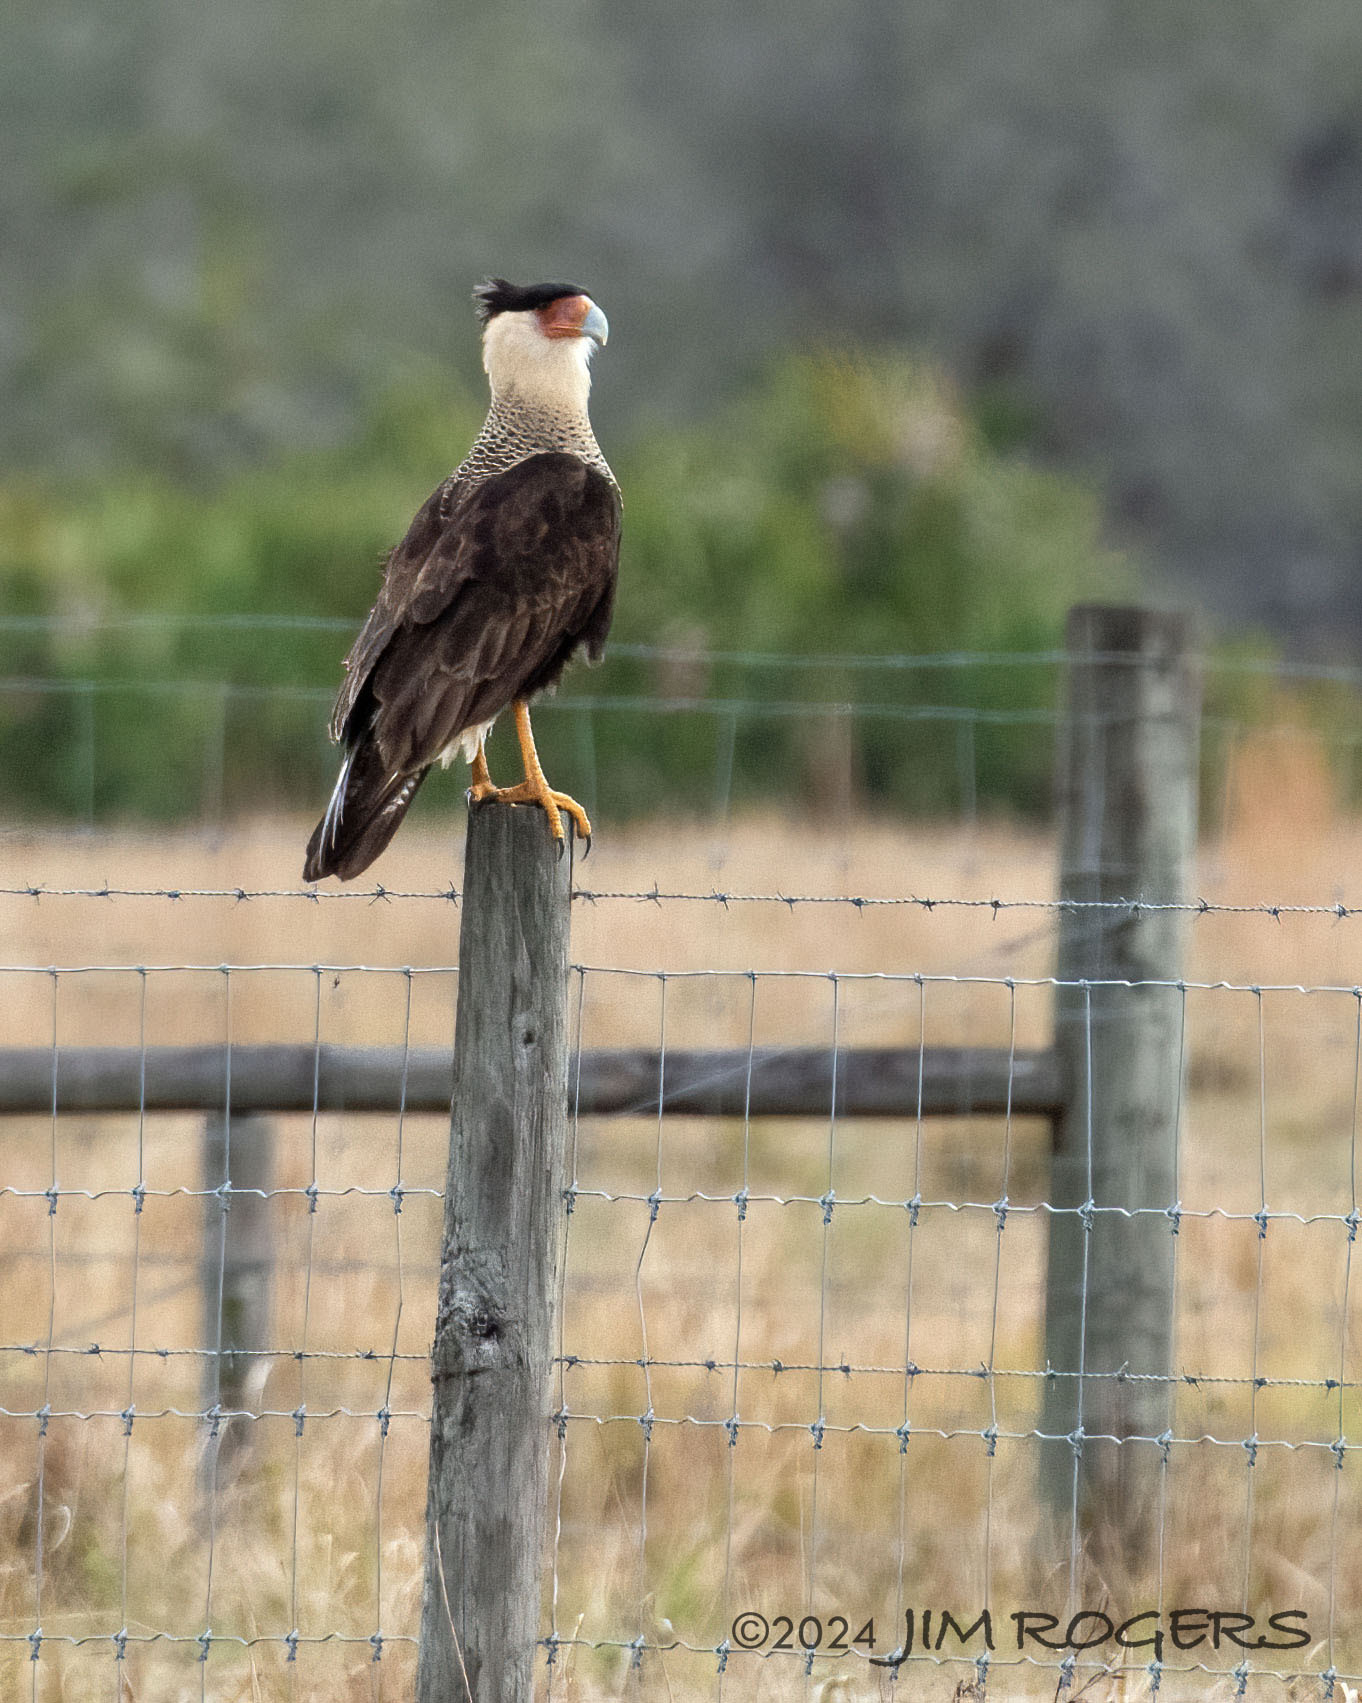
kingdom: Animalia
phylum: Chordata
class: Aves
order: Falconiformes
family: Falconidae
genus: Caracara
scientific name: Caracara plancus
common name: Southern caracara
